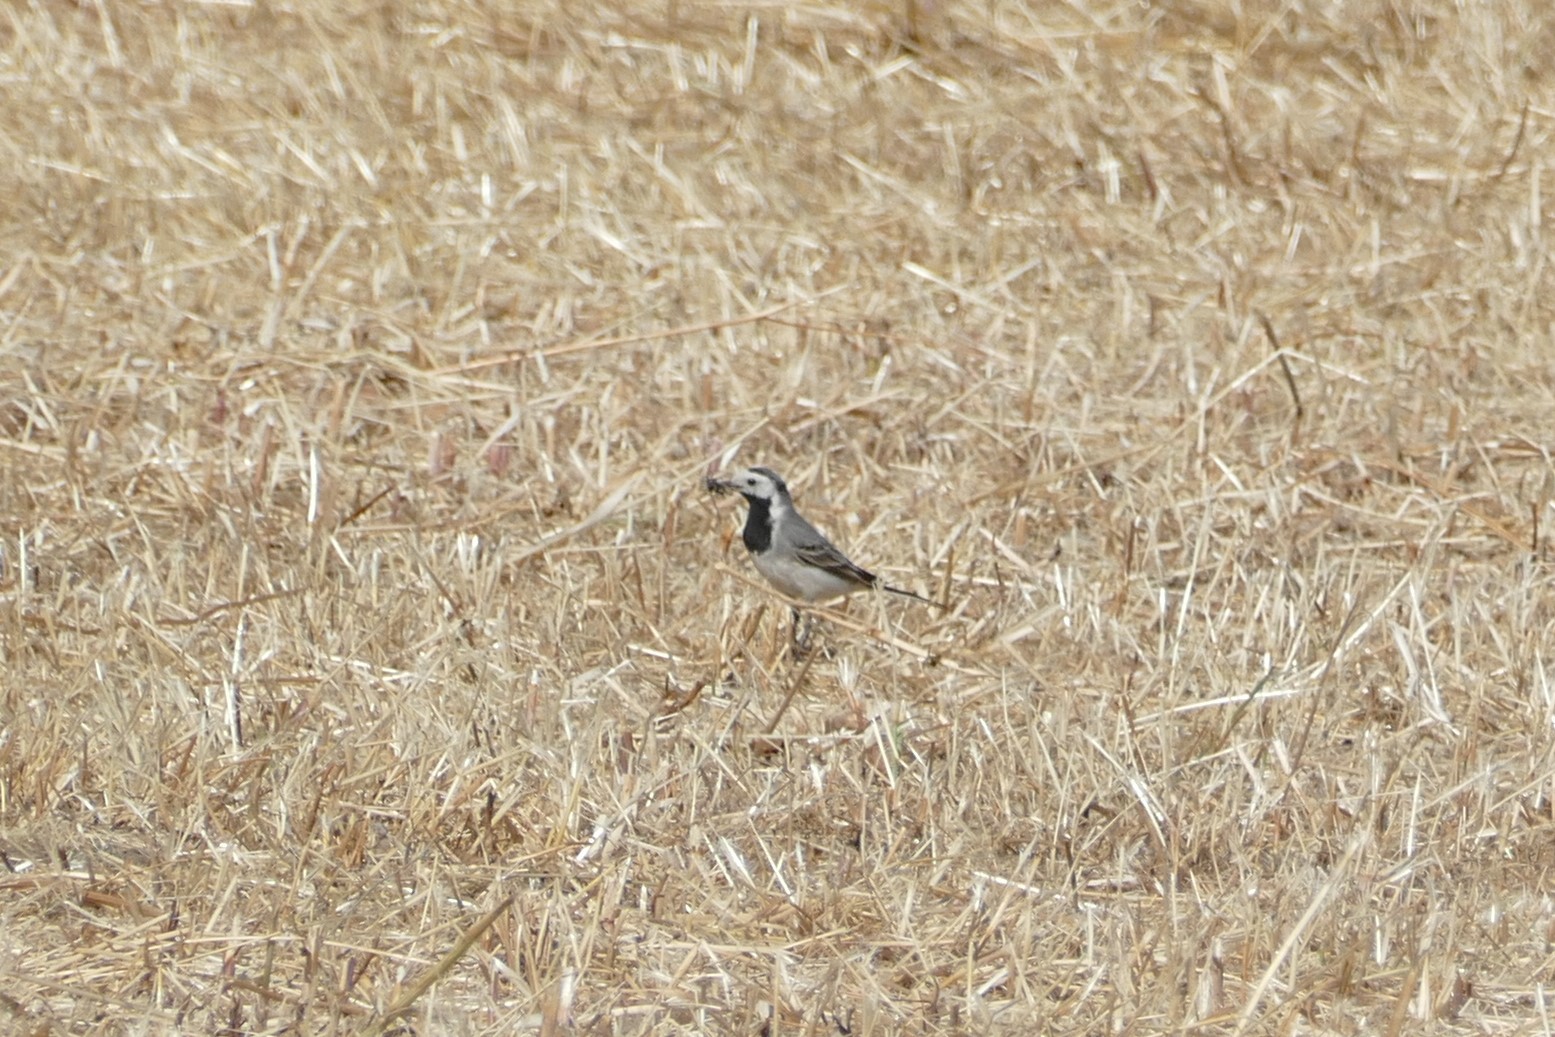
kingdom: Animalia
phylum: Chordata
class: Aves
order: Passeriformes
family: Motacillidae
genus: Motacilla
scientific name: Motacilla alba
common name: White wagtail
